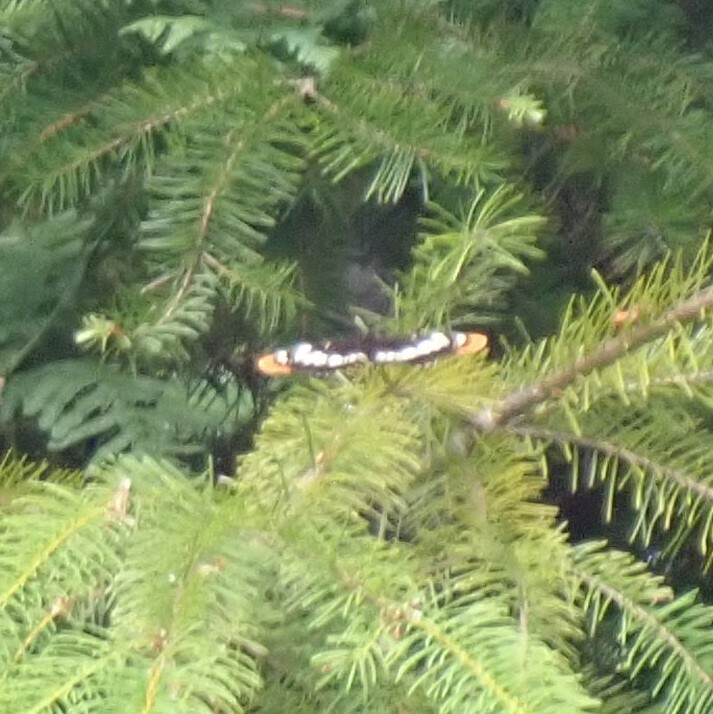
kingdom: Animalia
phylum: Arthropoda
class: Insecta
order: Lepidoptera
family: Nymphalidae
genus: Limenitis
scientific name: Limenitis lorquini
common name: Lorquin's admiral
